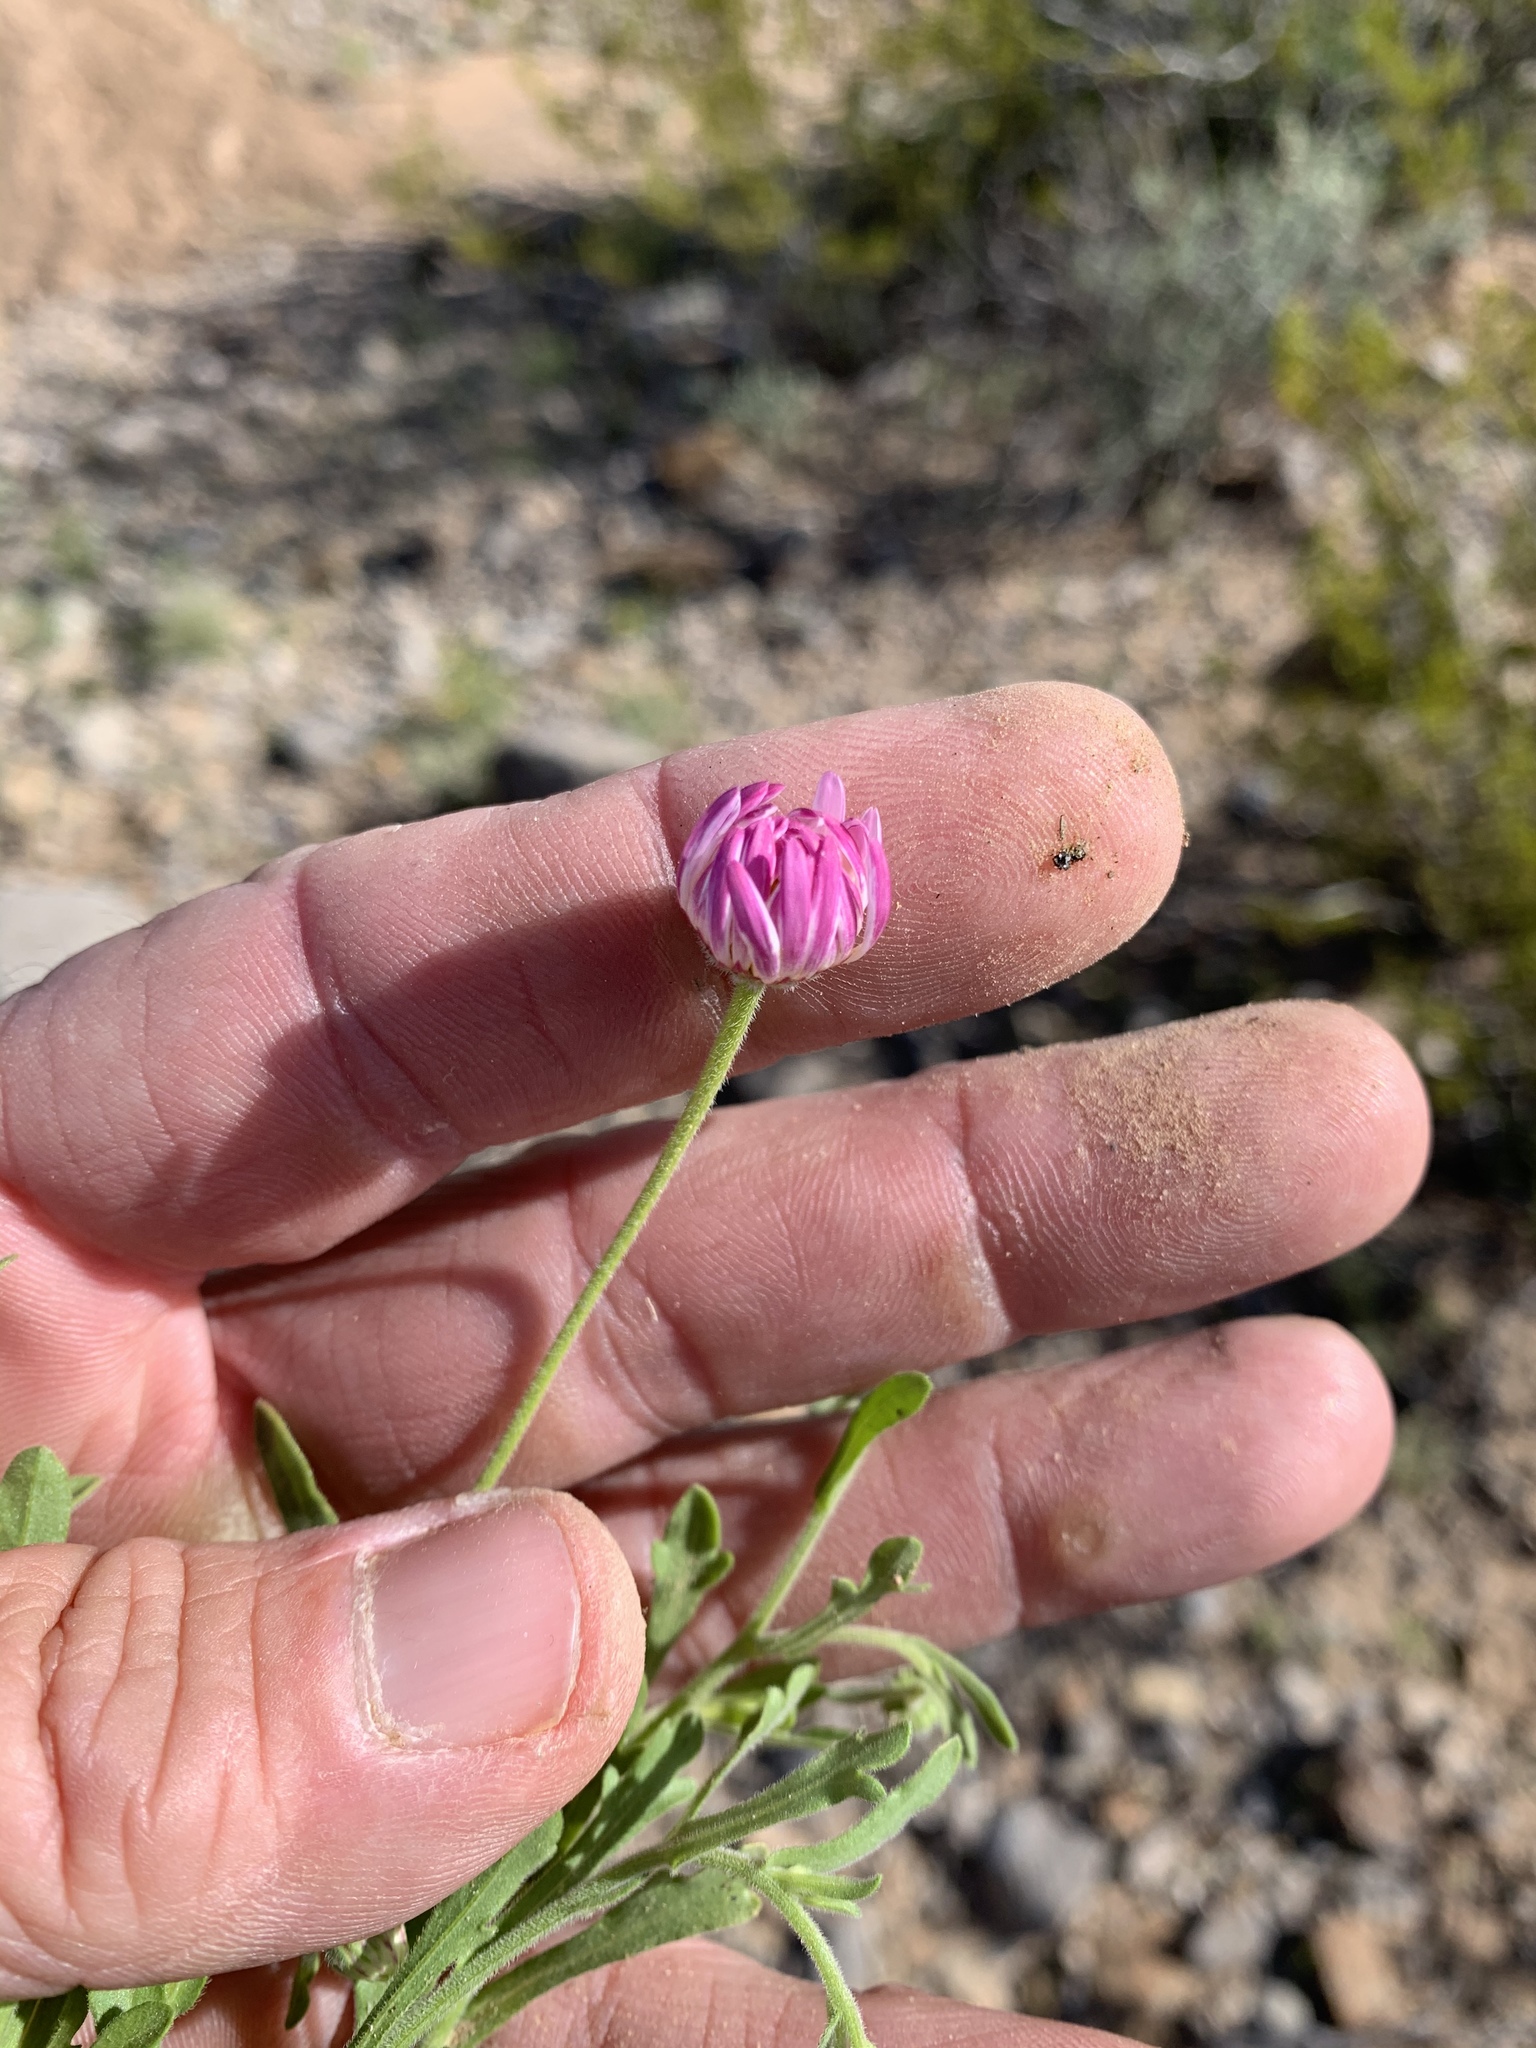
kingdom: Plantae
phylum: Tracheophyta
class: Magnoliopsida
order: Asterales
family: Asteraceae
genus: Aphanostephus
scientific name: Aphanostephus ramosissimus
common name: Plains lazy daisy
